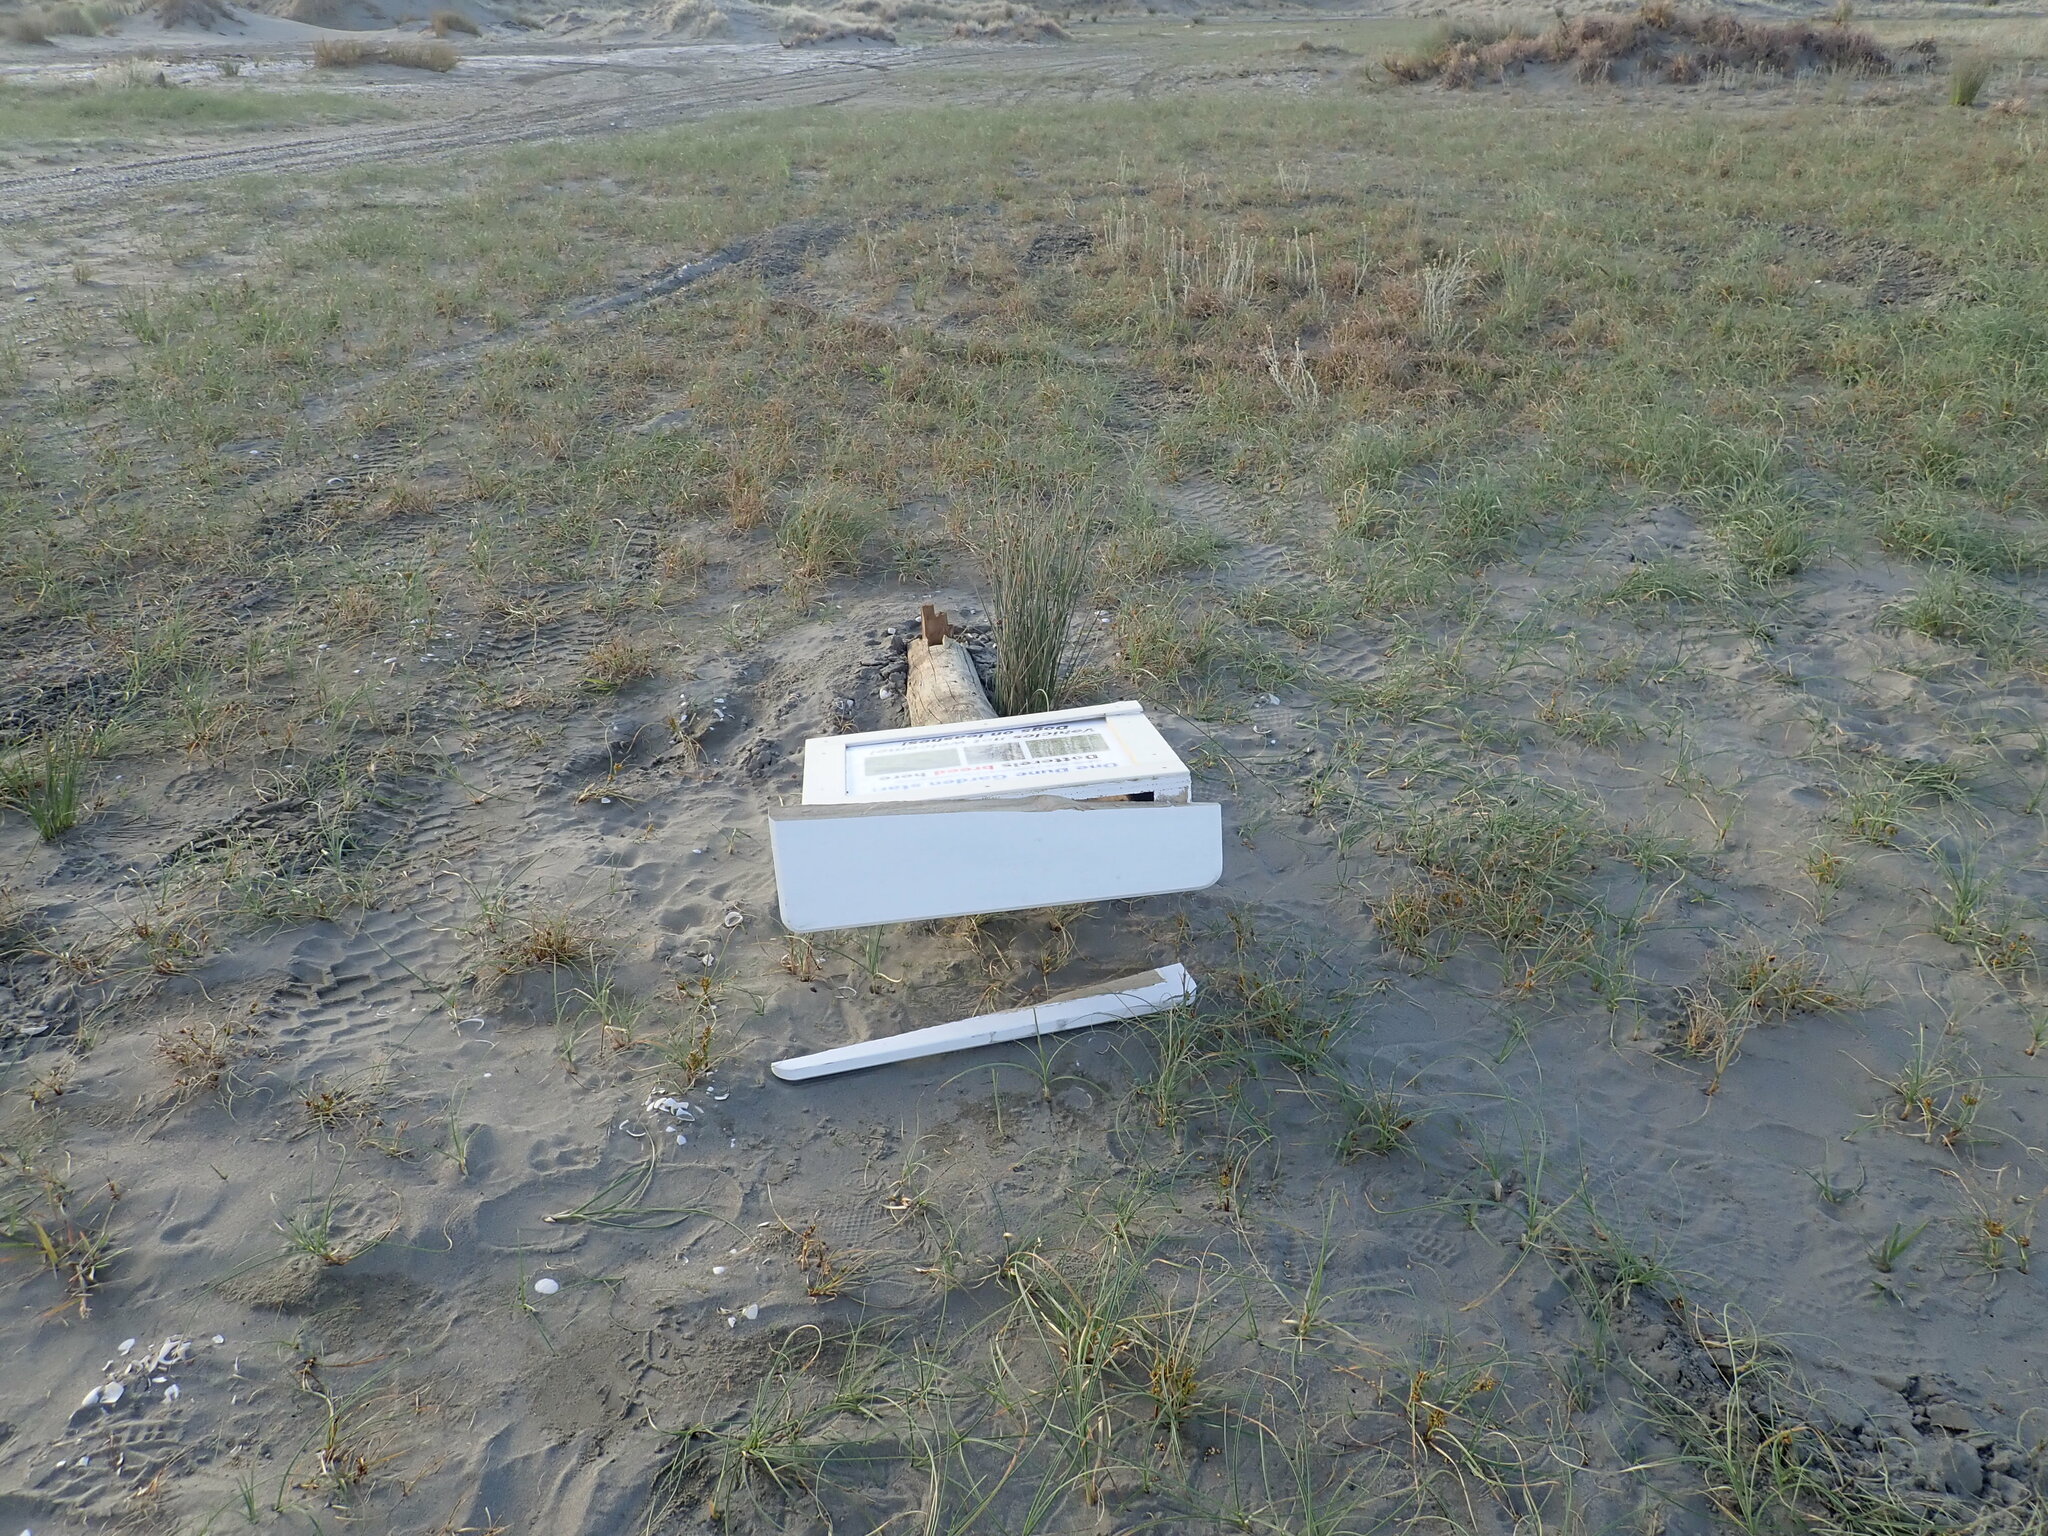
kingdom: Animalia
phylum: Chordata
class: Aves
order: Charadriiformes
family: Charadriidae
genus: Anarhynchus
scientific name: Anarhynchus
